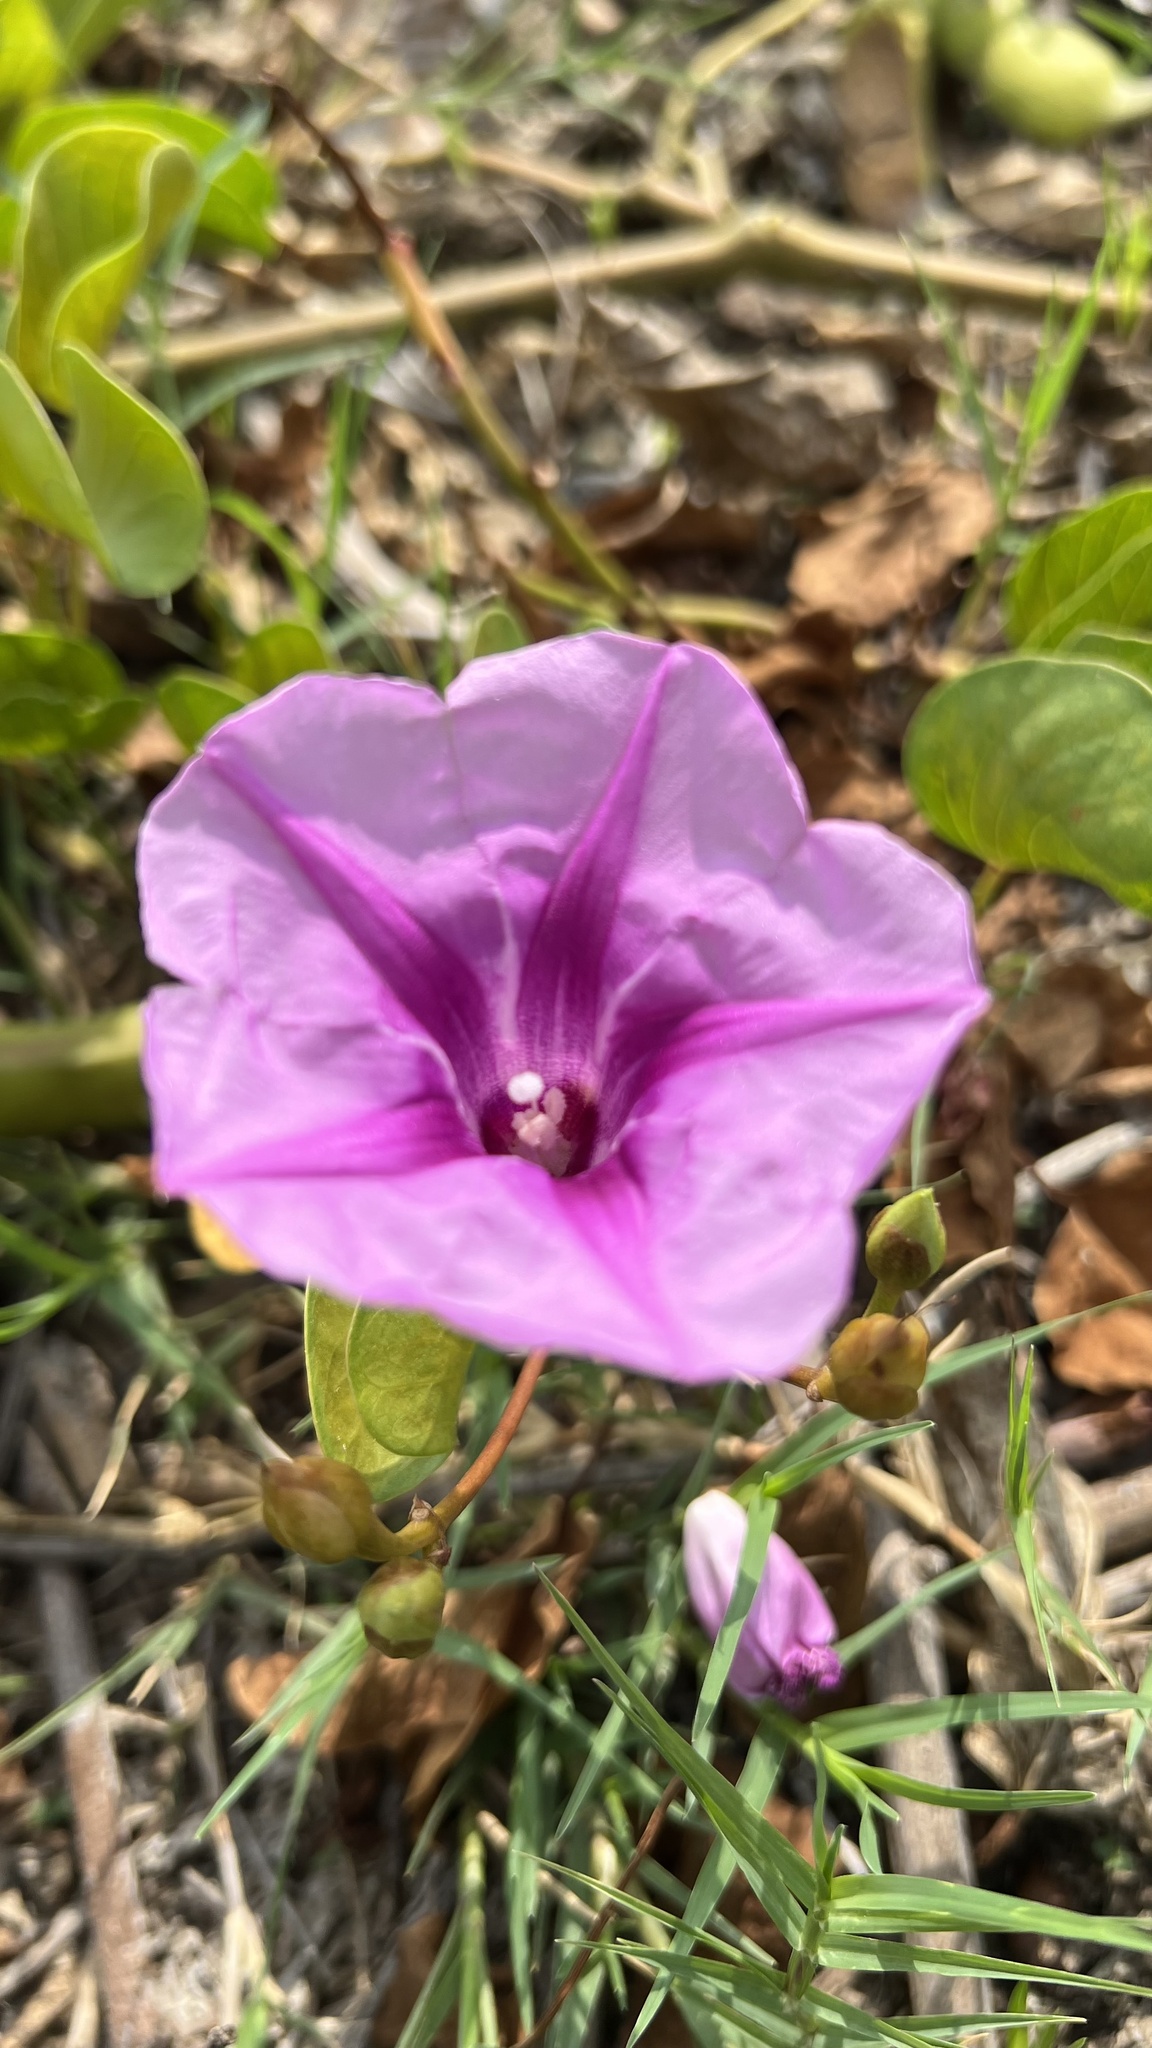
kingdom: Plantae
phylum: Tracheophyta
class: Magnoliopsida
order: Solanales
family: Convolvulaceae
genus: Ipomoea
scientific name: Ipomoea pes-caprae
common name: Beach morning glory
